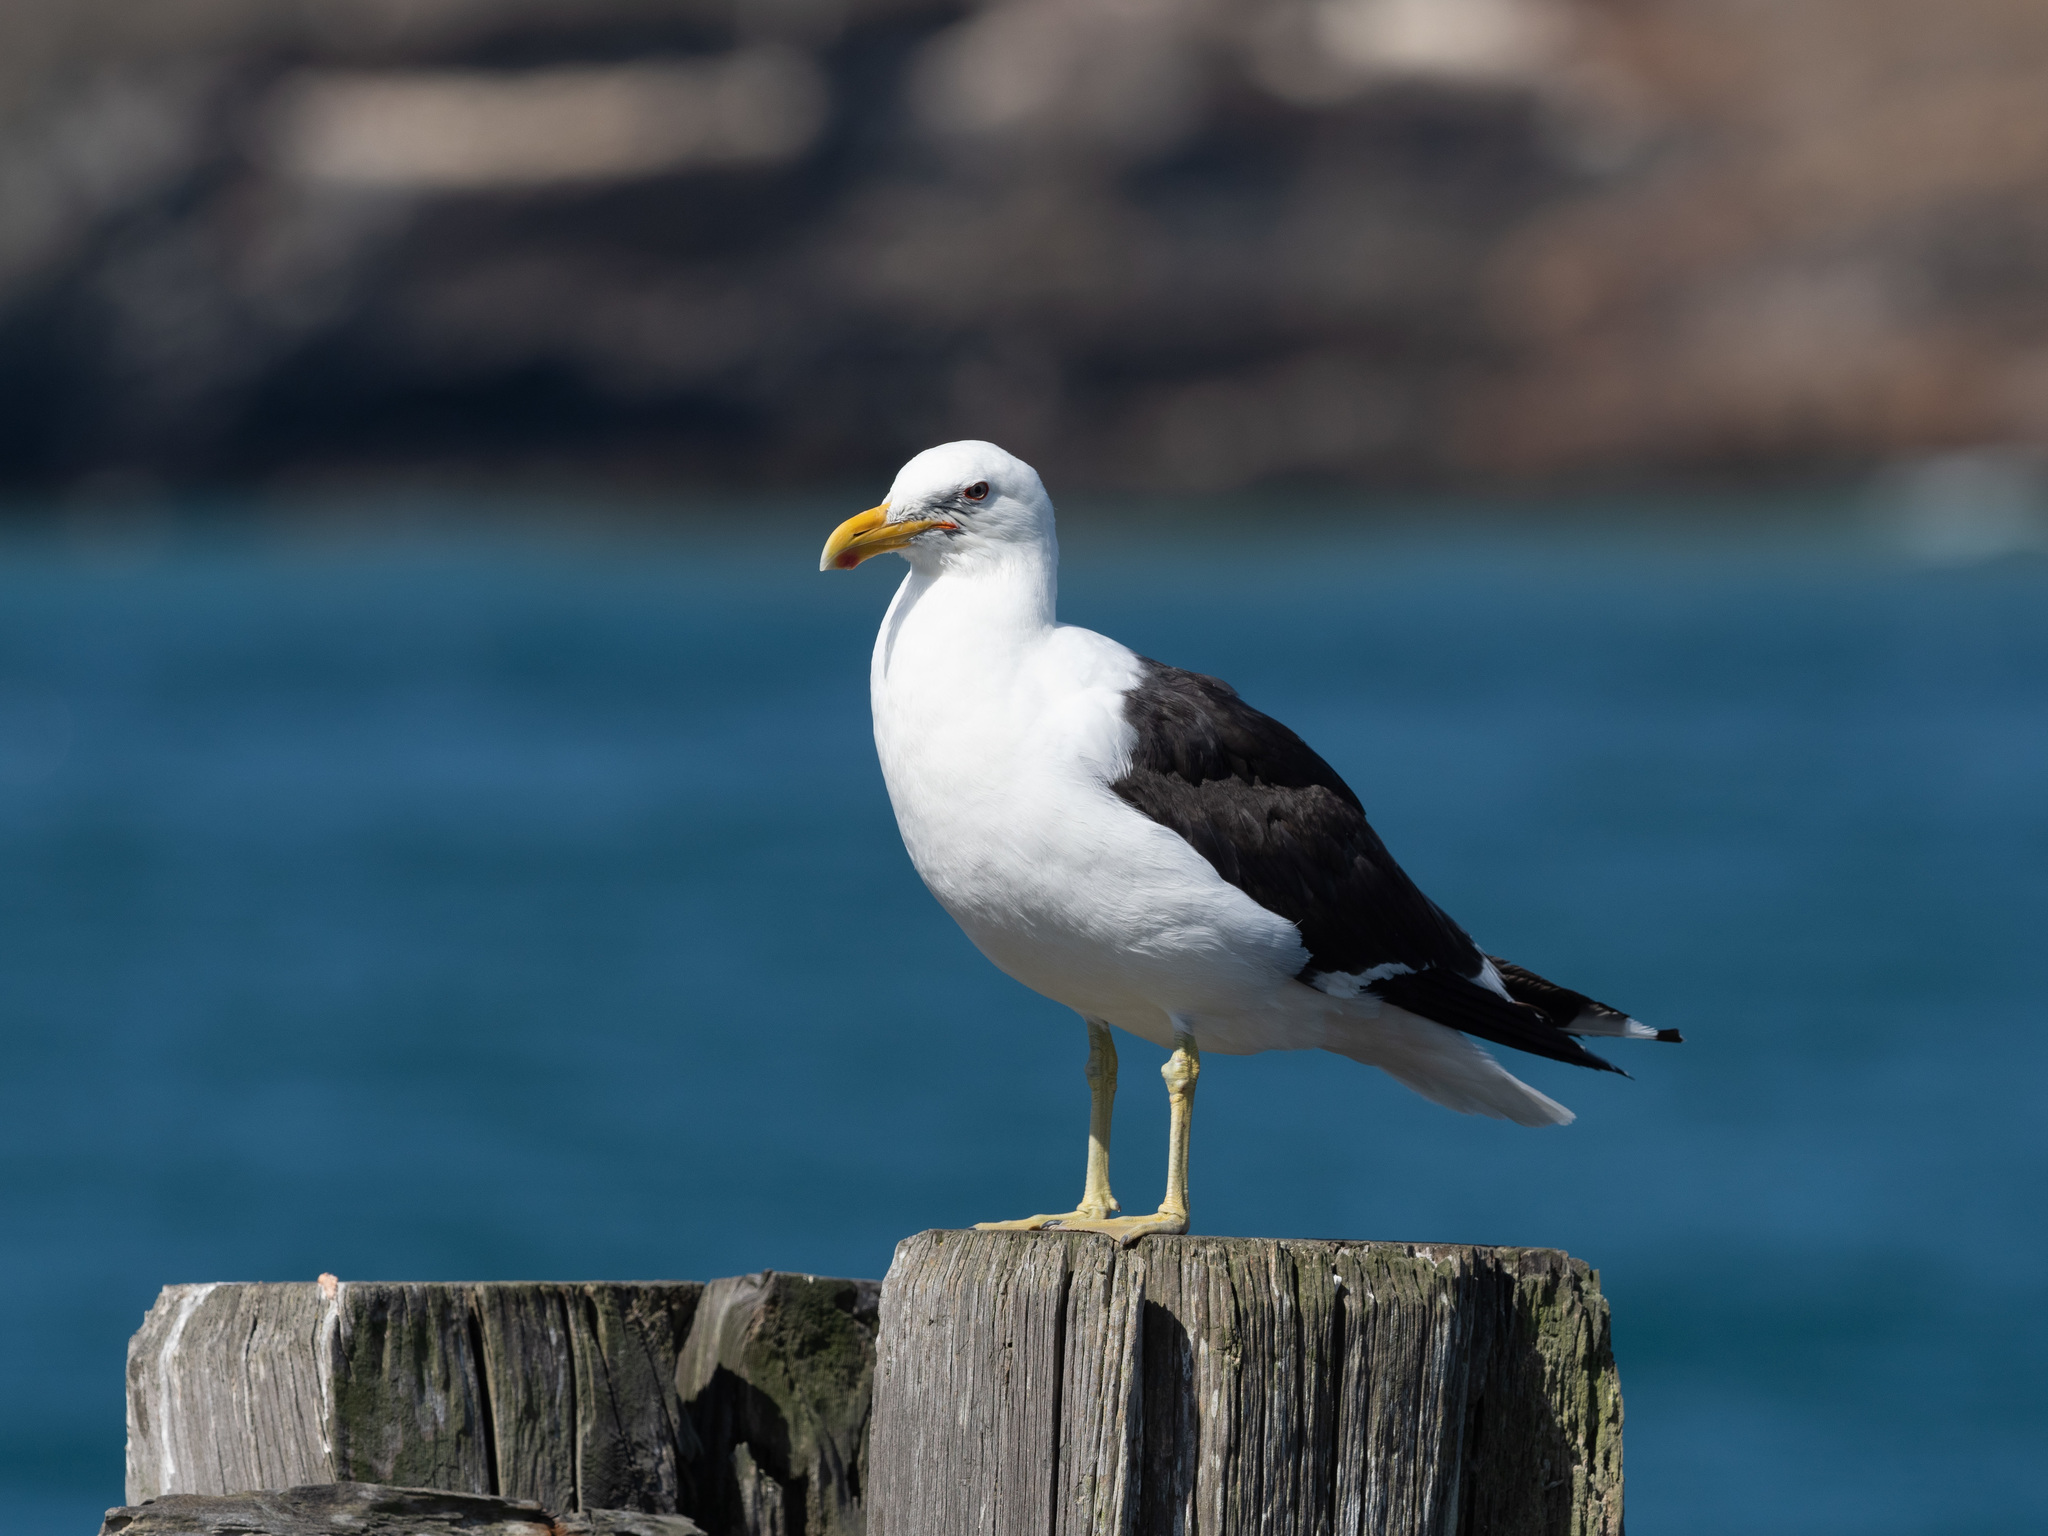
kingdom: Animalia
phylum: Chordata
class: Aves
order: Charadriiformes
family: Laridae
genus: Larus
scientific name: Larus dominicanus
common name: Kelp gull
